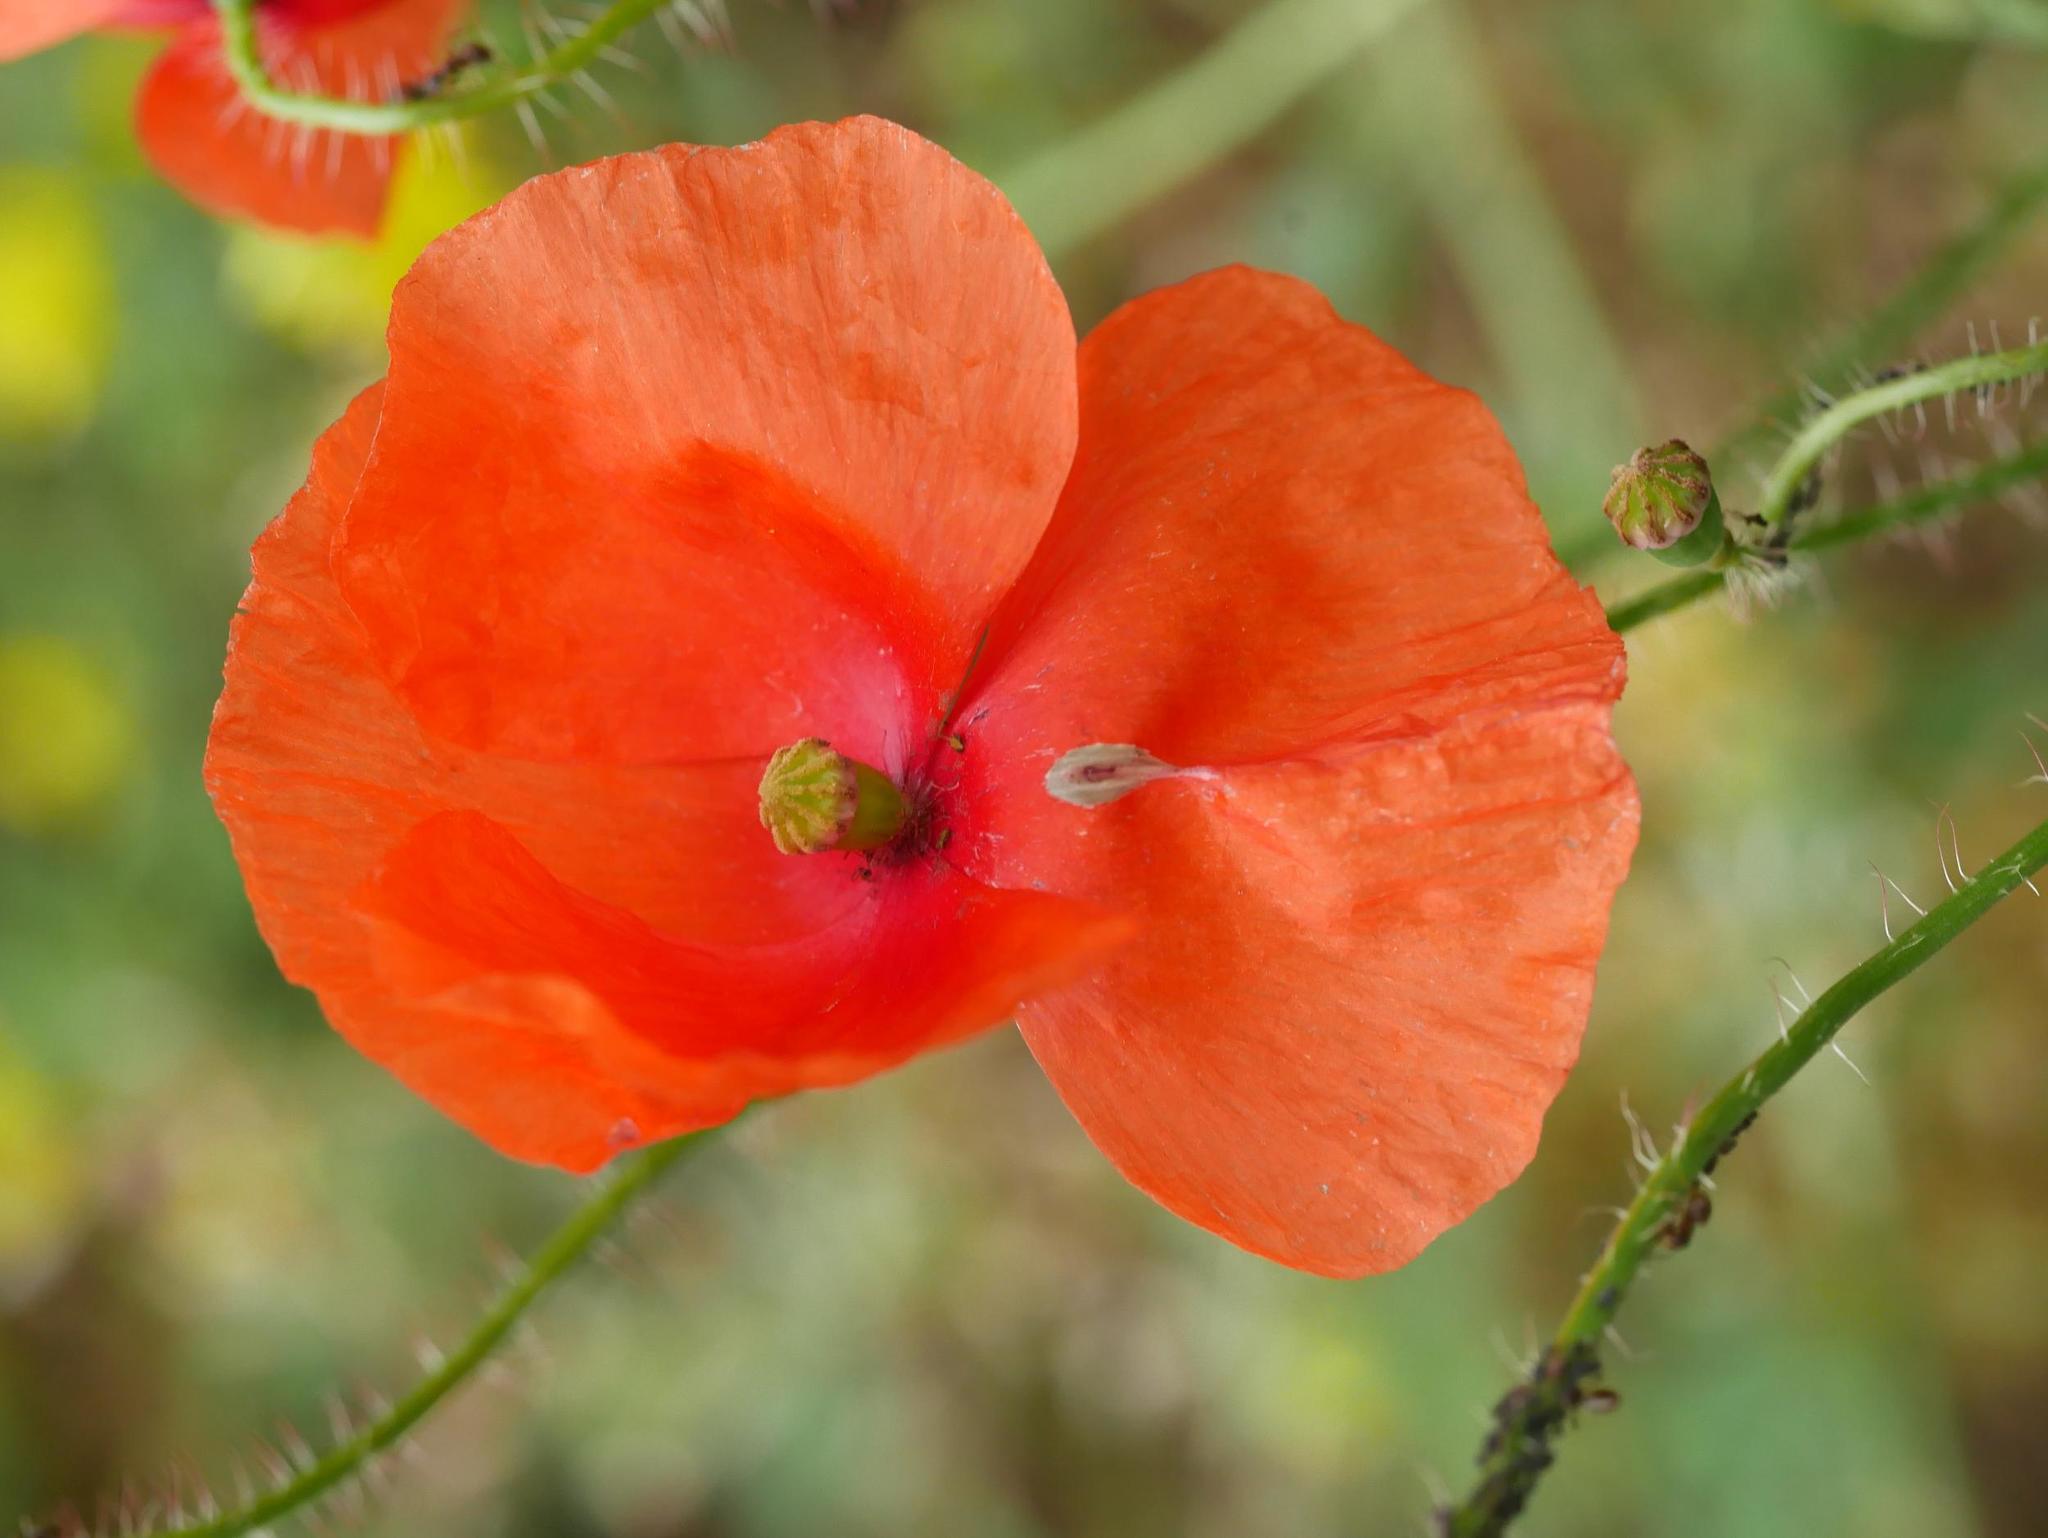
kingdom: Plantae
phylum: Tracheophyta
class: Magnoliopsida
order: Ranunculales
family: Papaveraceae
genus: Papaver
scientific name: Papaver dubium
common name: Long-headed poppy
